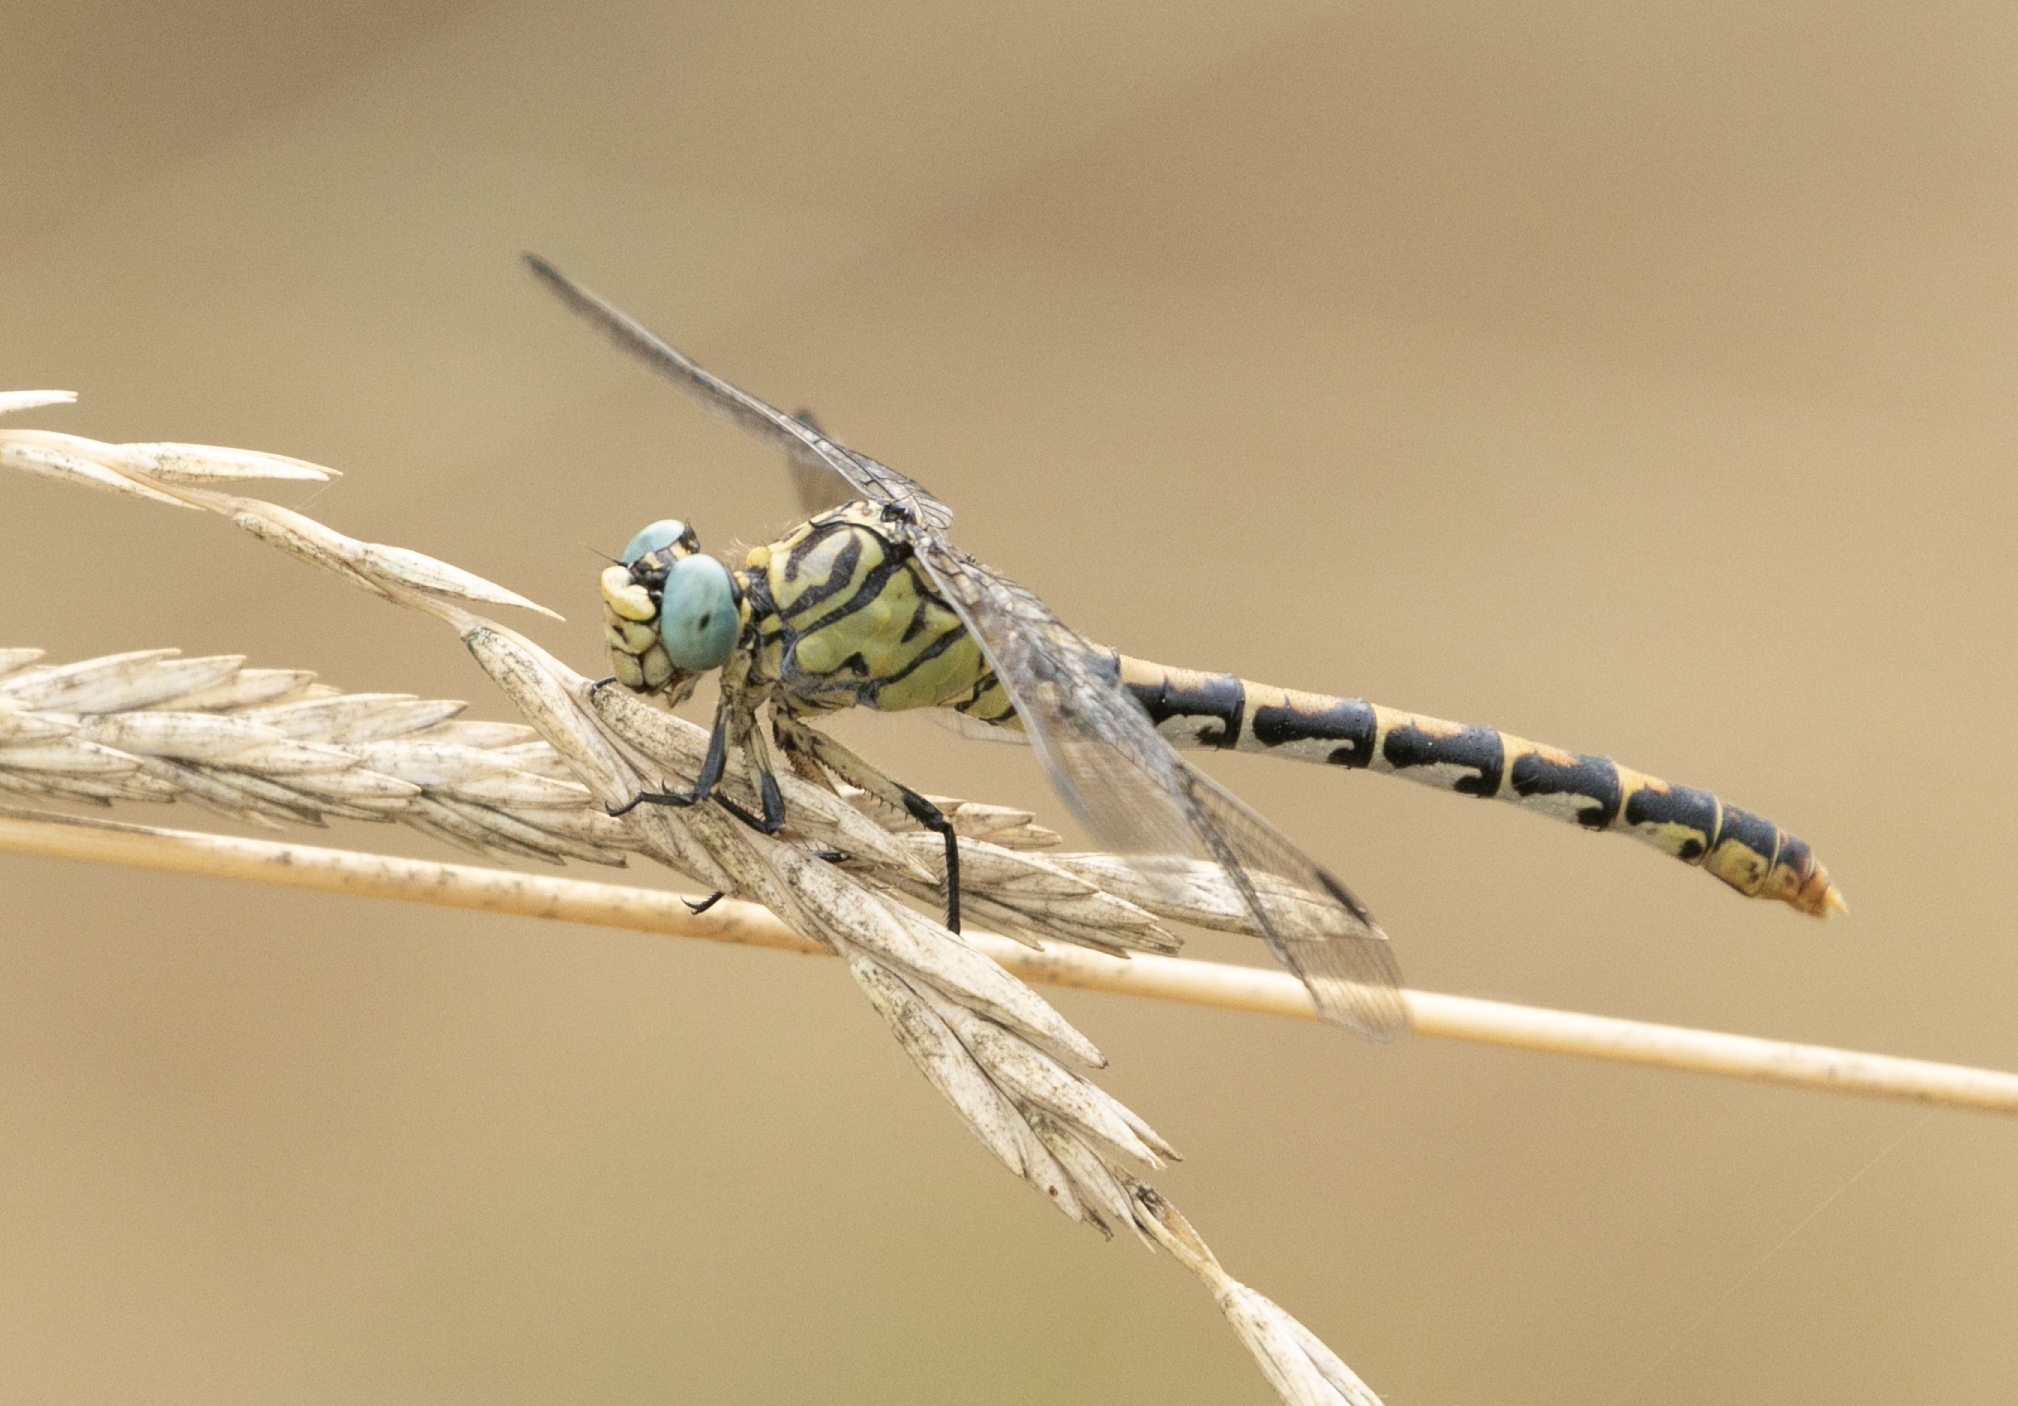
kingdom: Animalia
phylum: Arthropoda
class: Insecta
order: Odonata
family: Gomphidae
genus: Onychogomphus
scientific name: Onychogomphus forcipatus
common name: Small pincertail
